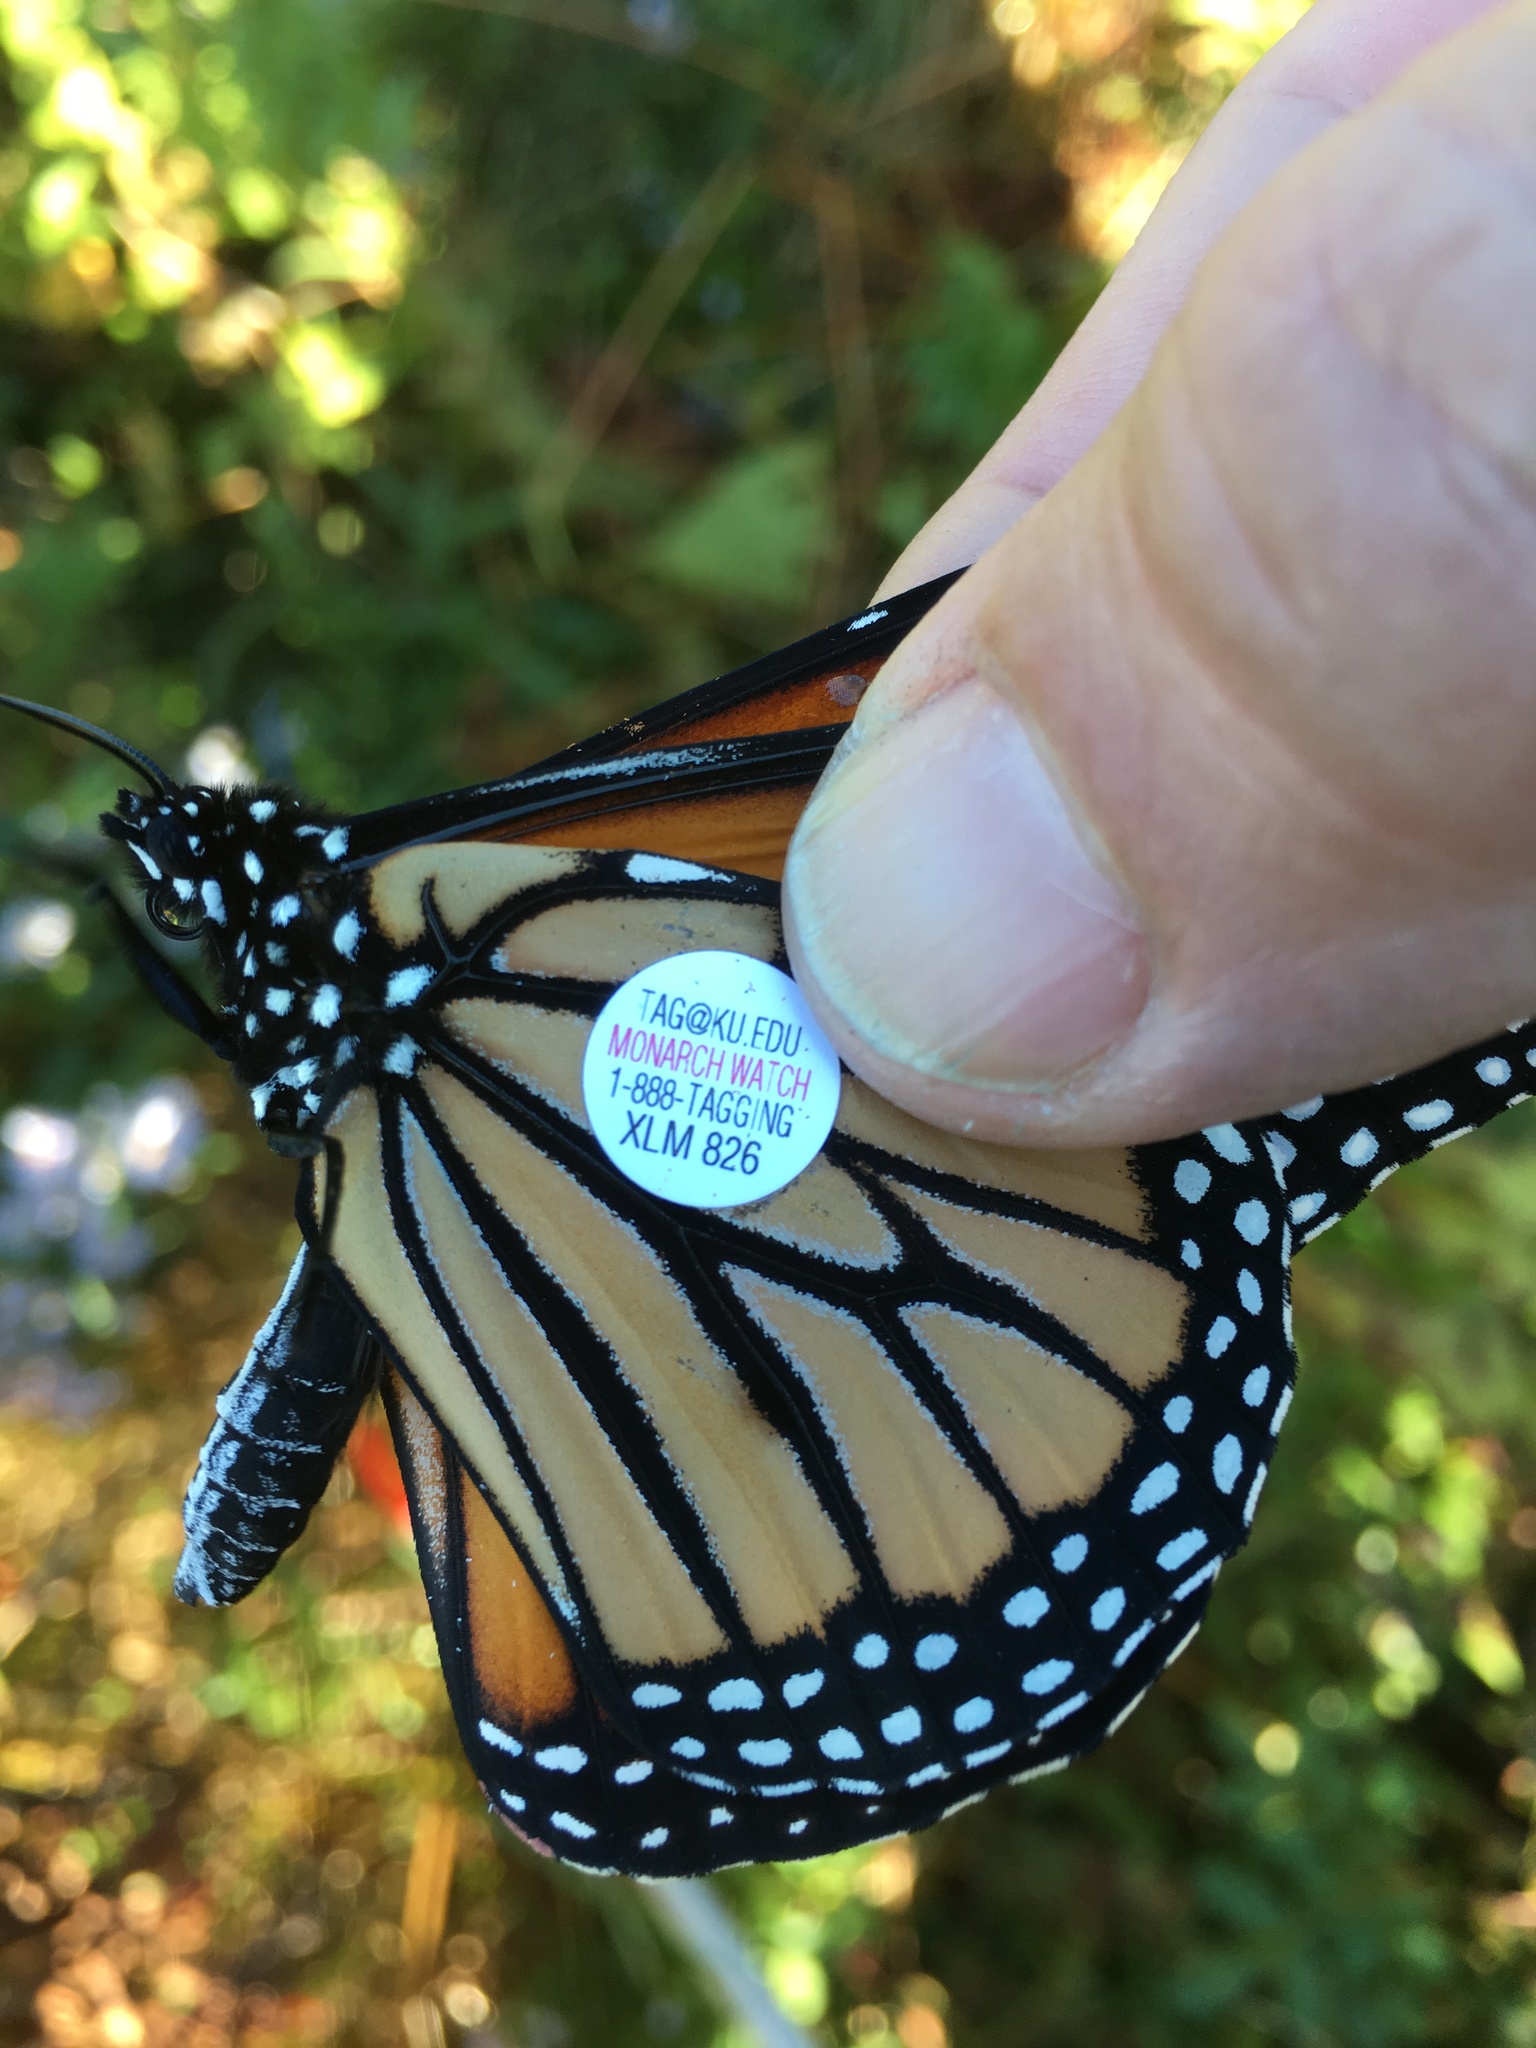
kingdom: Animalia
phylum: Arthropoda
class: Insecta
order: Lepidoptera
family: Nymphalidae
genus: Danaus
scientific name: Danaus plexippus
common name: Monarch
